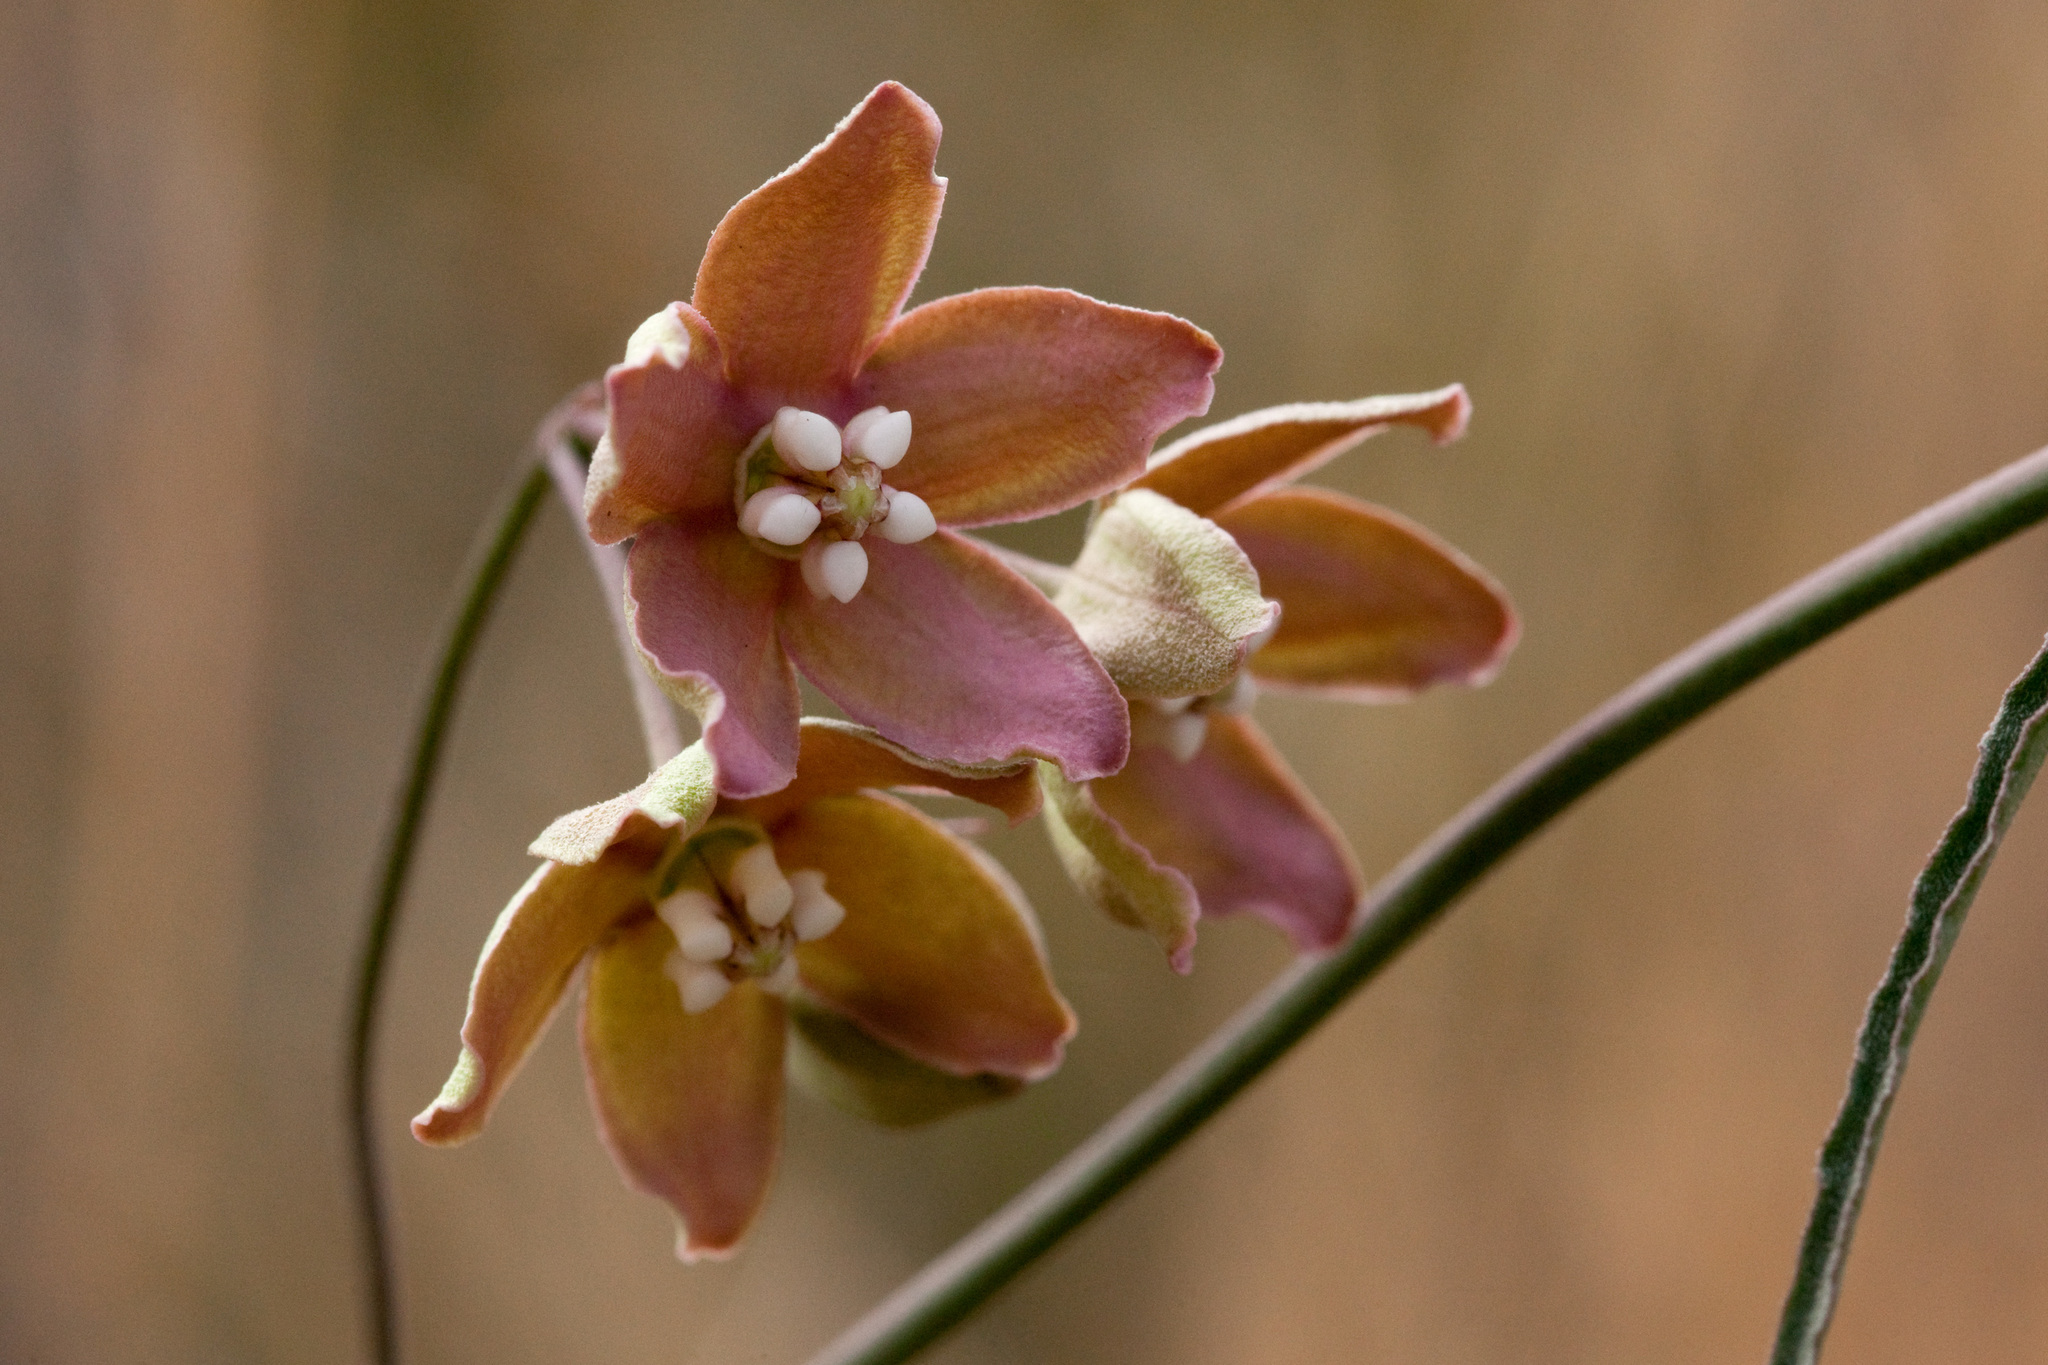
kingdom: Plantae
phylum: Tracheophyta
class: Magnoliopsida
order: Gentianales
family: Apocynaceae
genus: Funastrum
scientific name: Funastrum crispum
